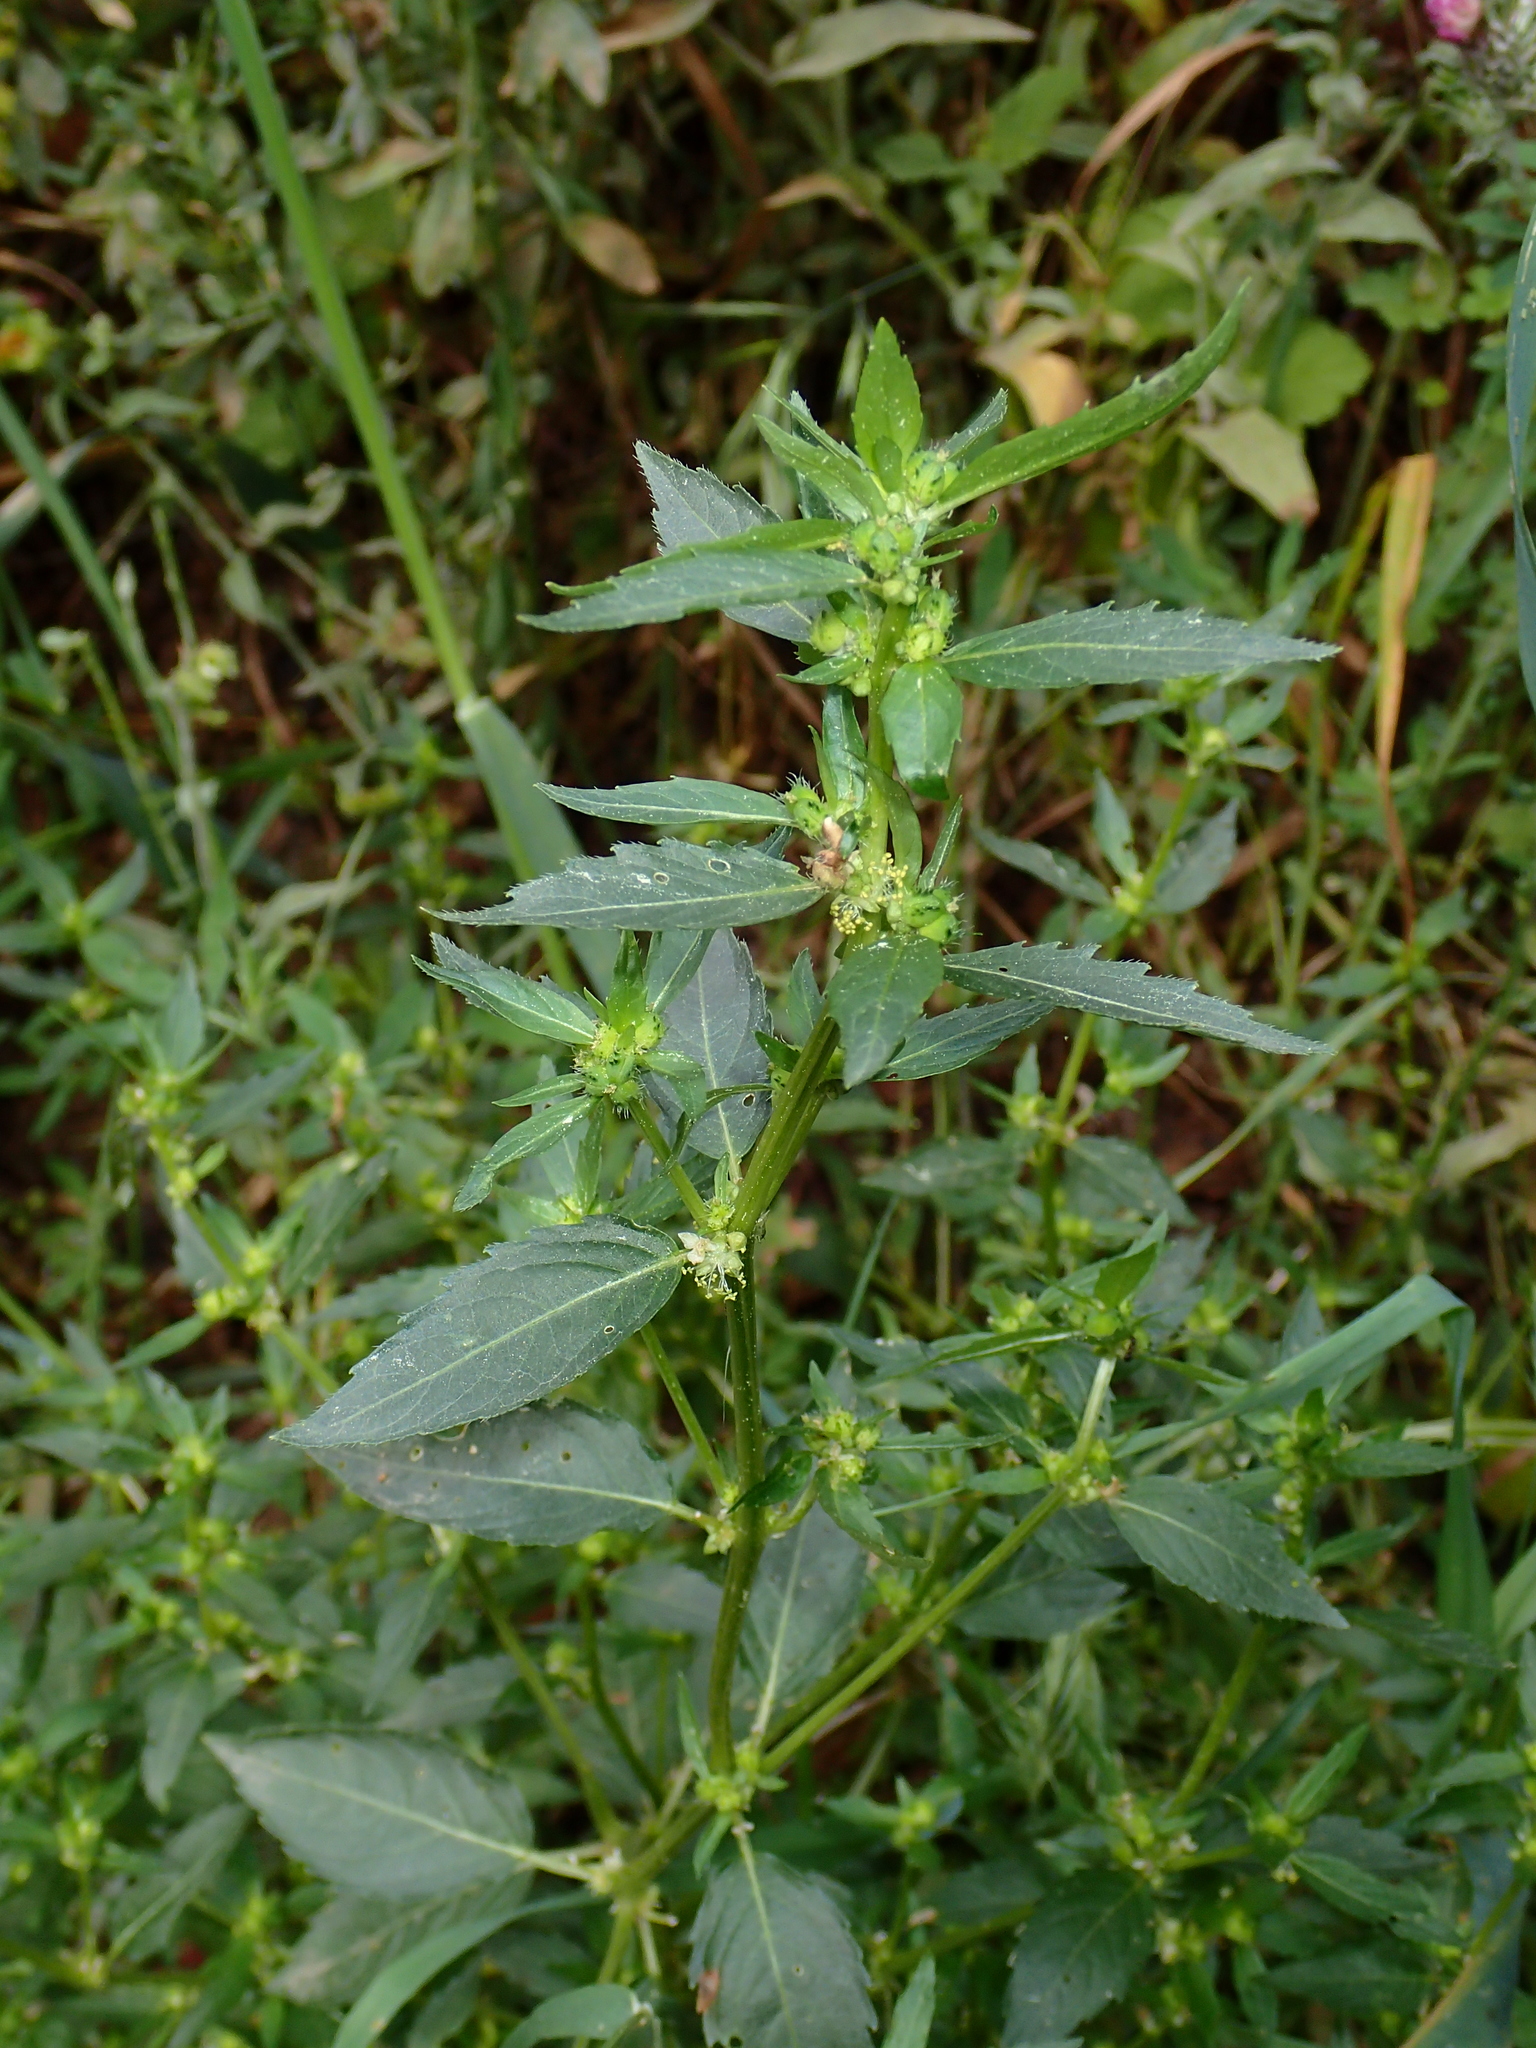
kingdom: Plantae
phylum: Tracheophyta
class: Magnoliopsida
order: Malpighiales
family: Euphorbiaceae
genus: Mercurialis
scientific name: Mercurialis annua
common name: Annual mercury
